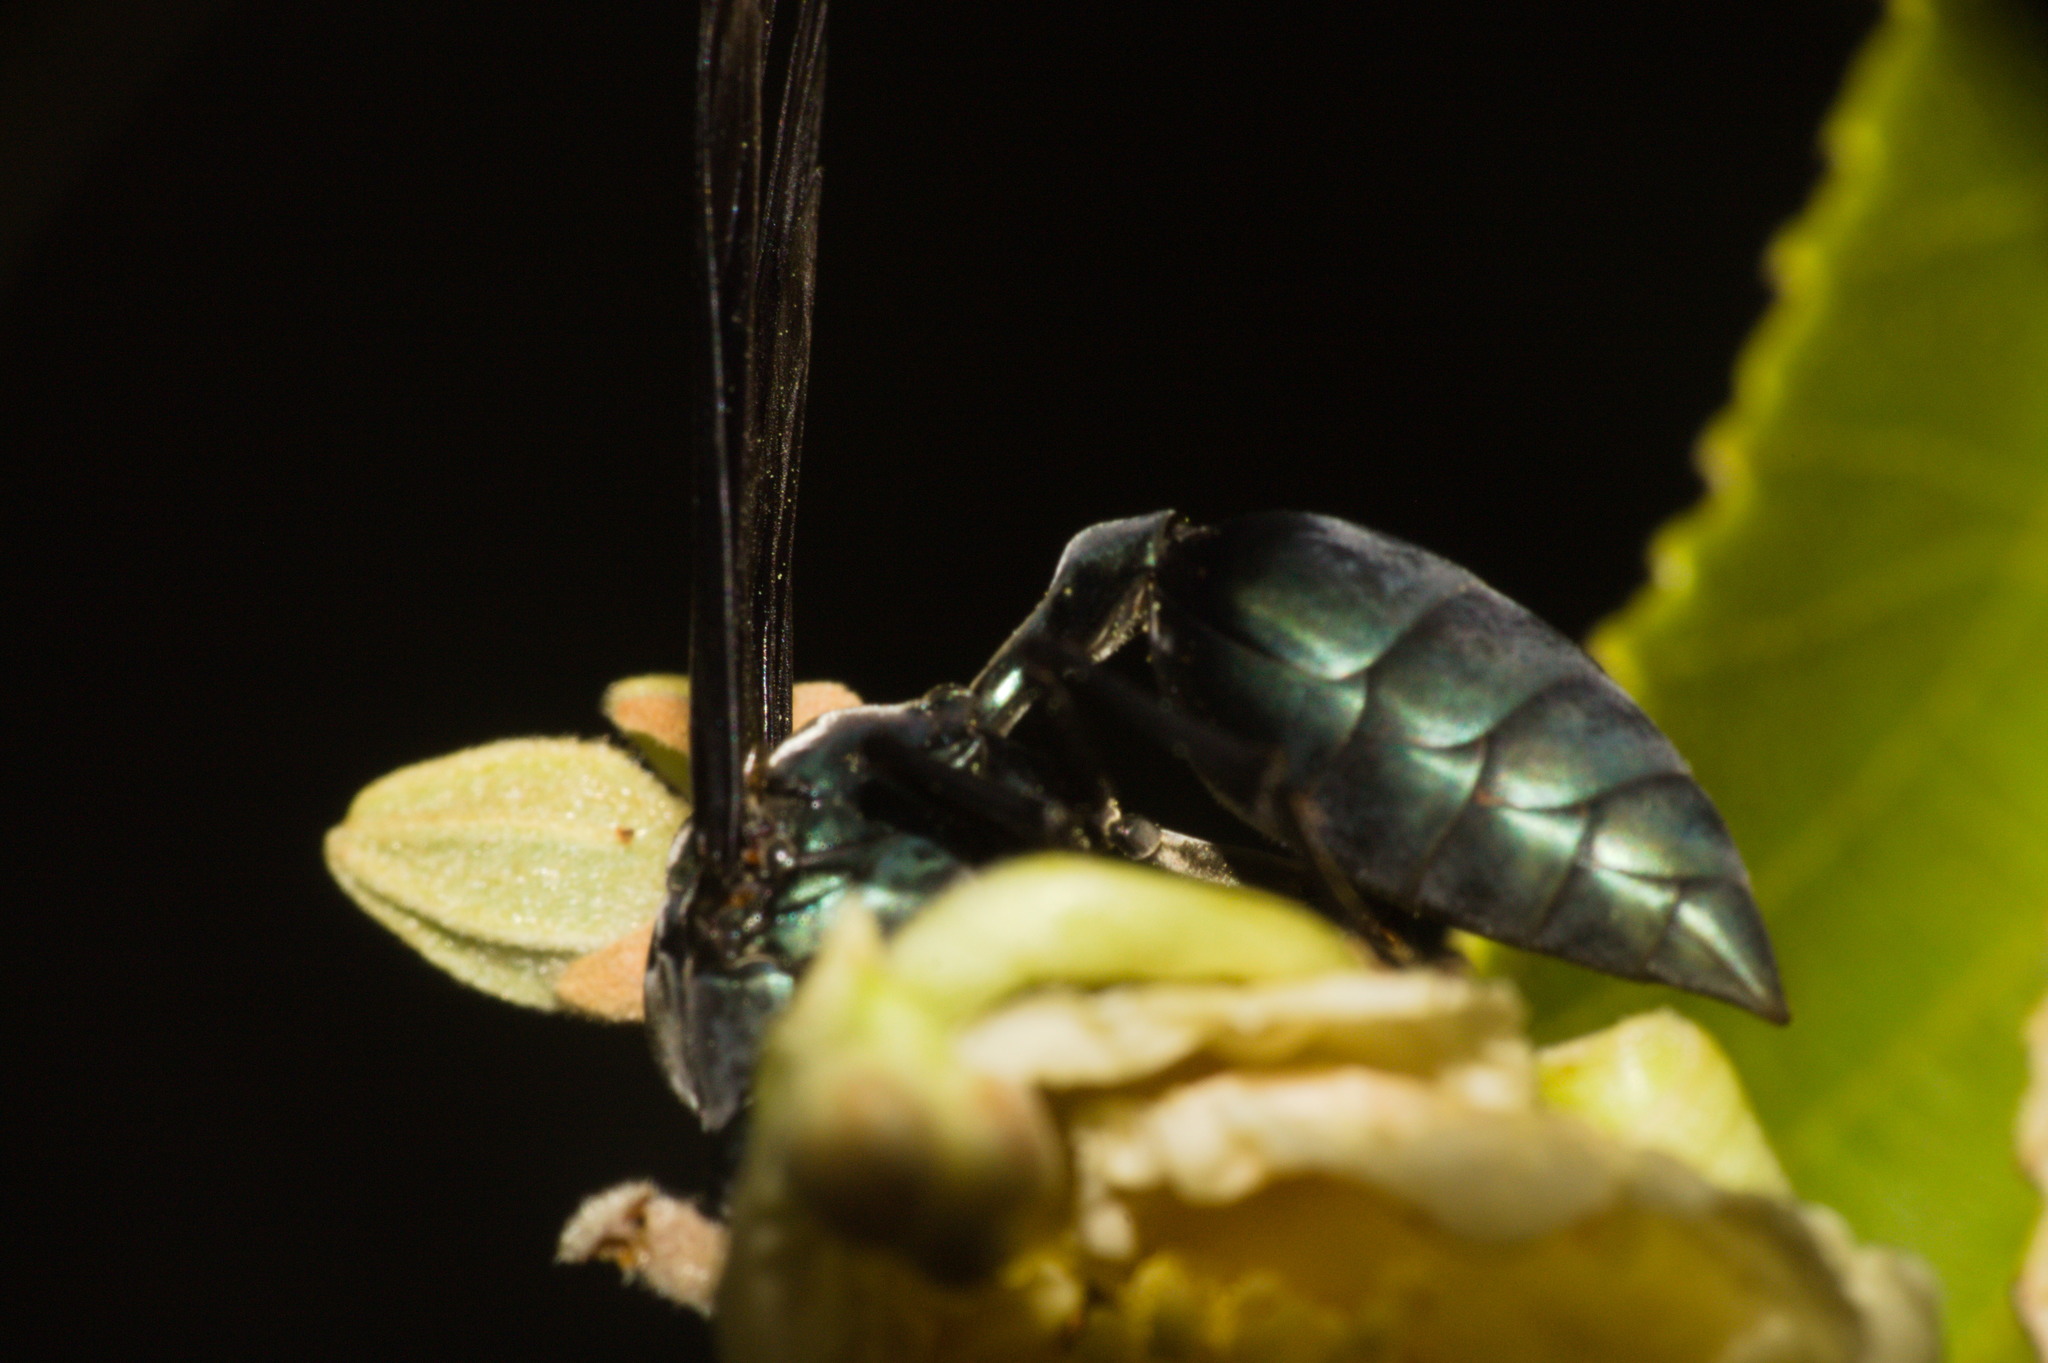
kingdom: Animalia
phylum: Arthropoda
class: Insecta
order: Hymenoptera
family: Vespidae
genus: Synoeca
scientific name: Synoeca cyanea
